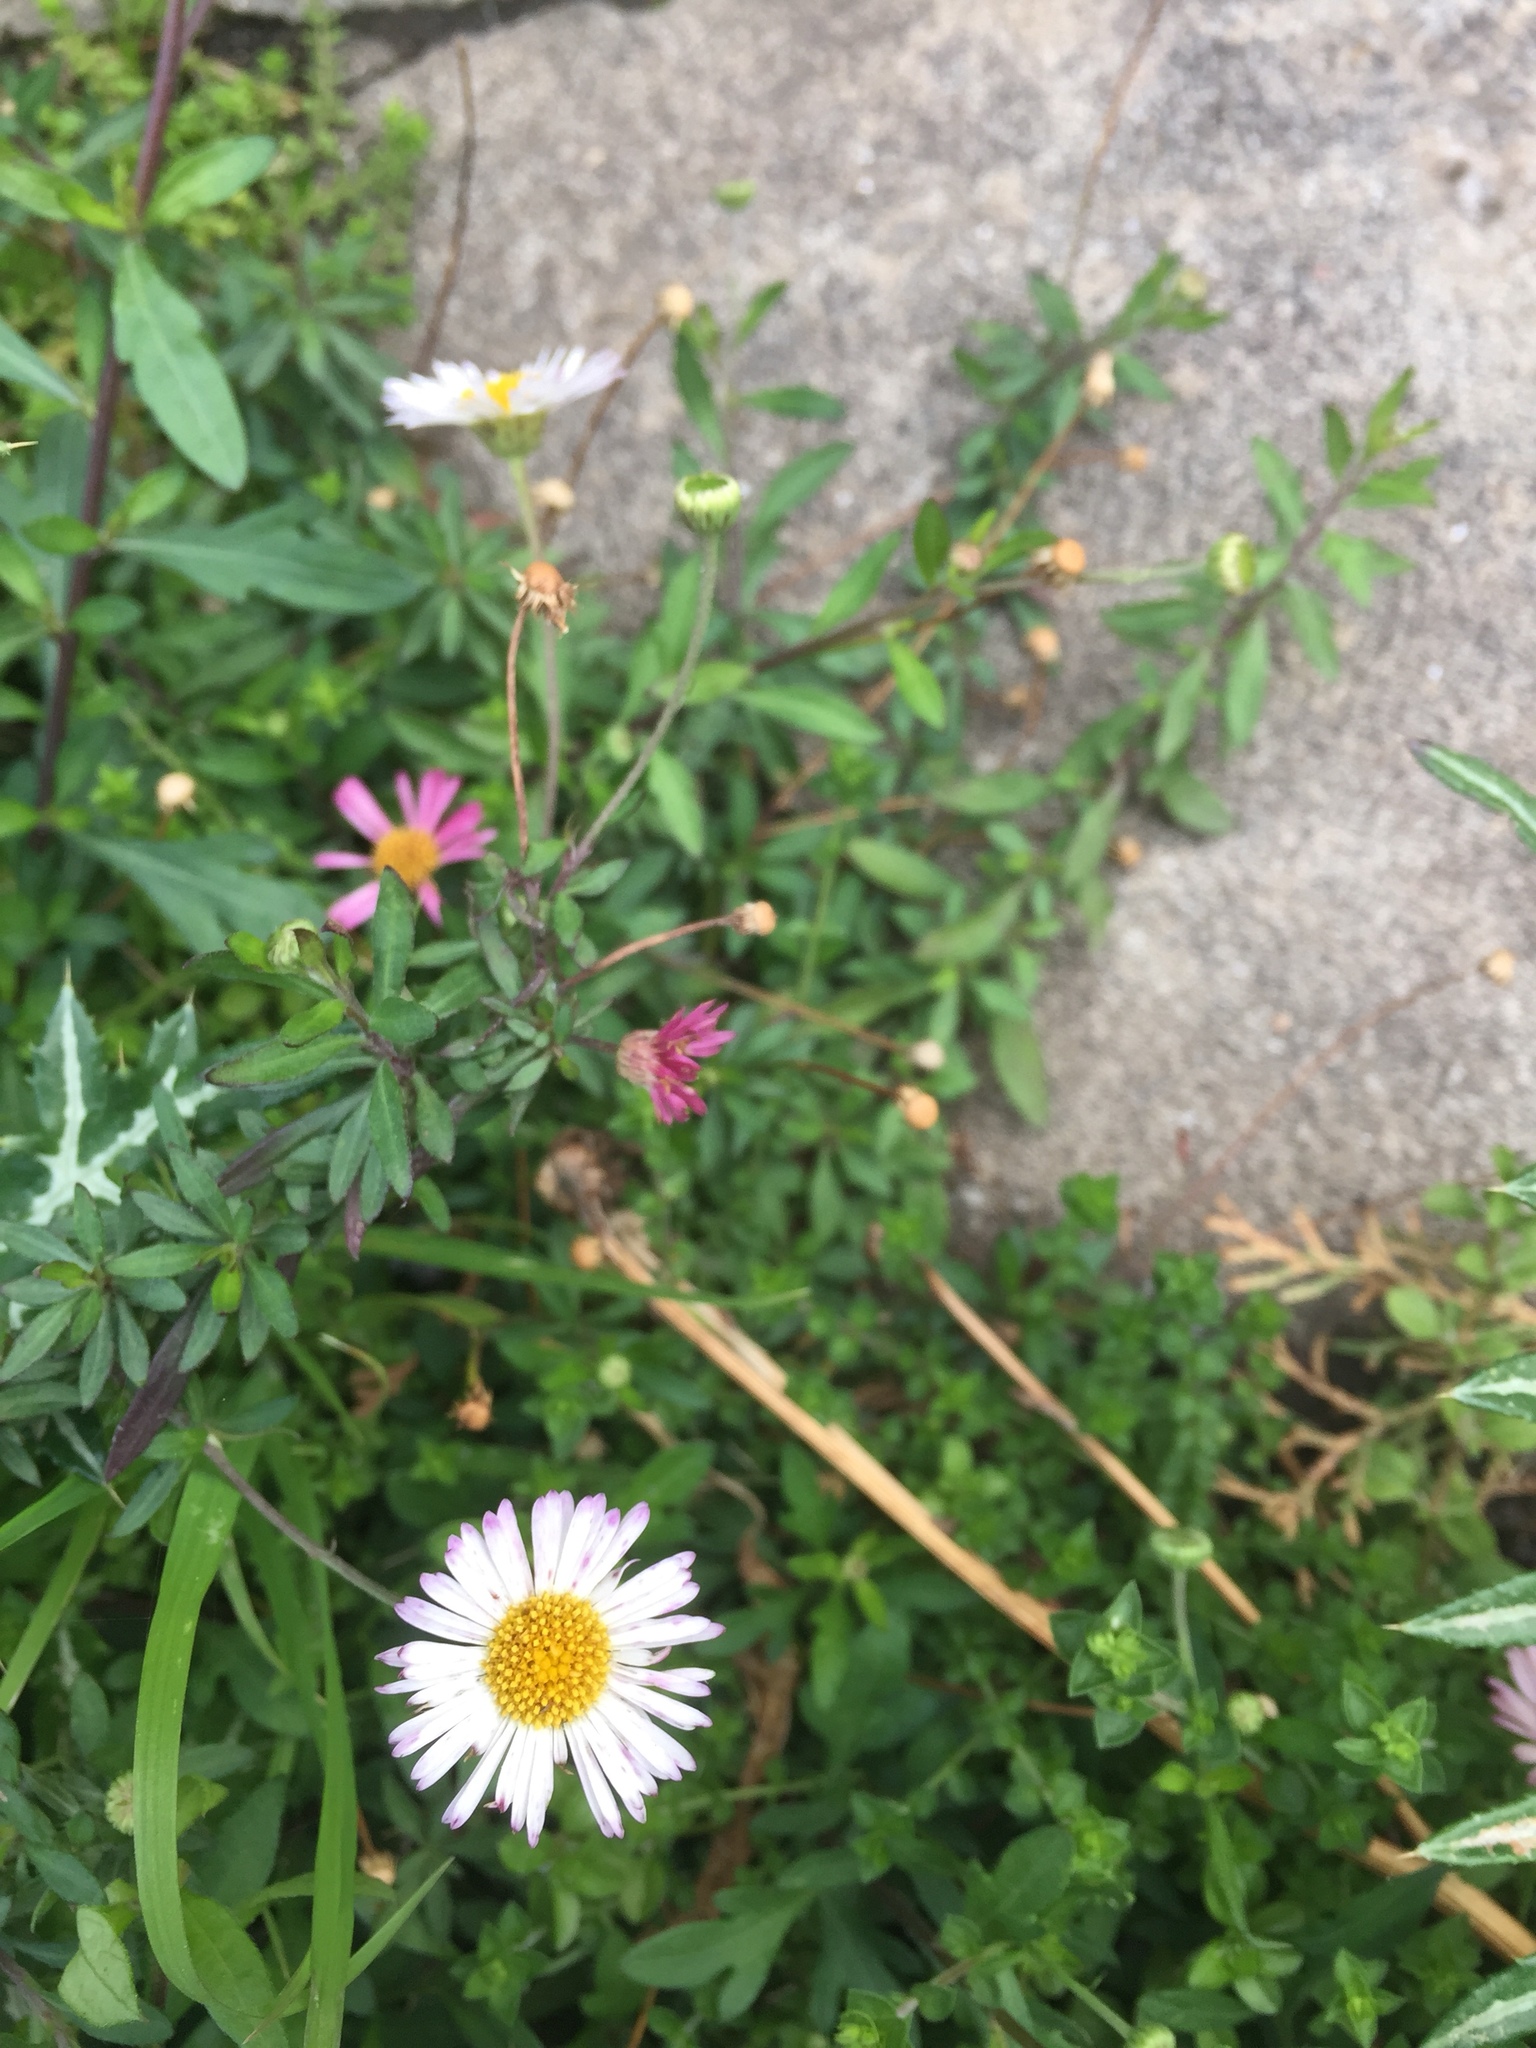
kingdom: Plantae
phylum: Tracheophyta
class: Magnoliopsida
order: Asterales
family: Asteraceae
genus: Erigeron
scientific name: Erigeron karvinskianus
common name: Mexican fleabane
